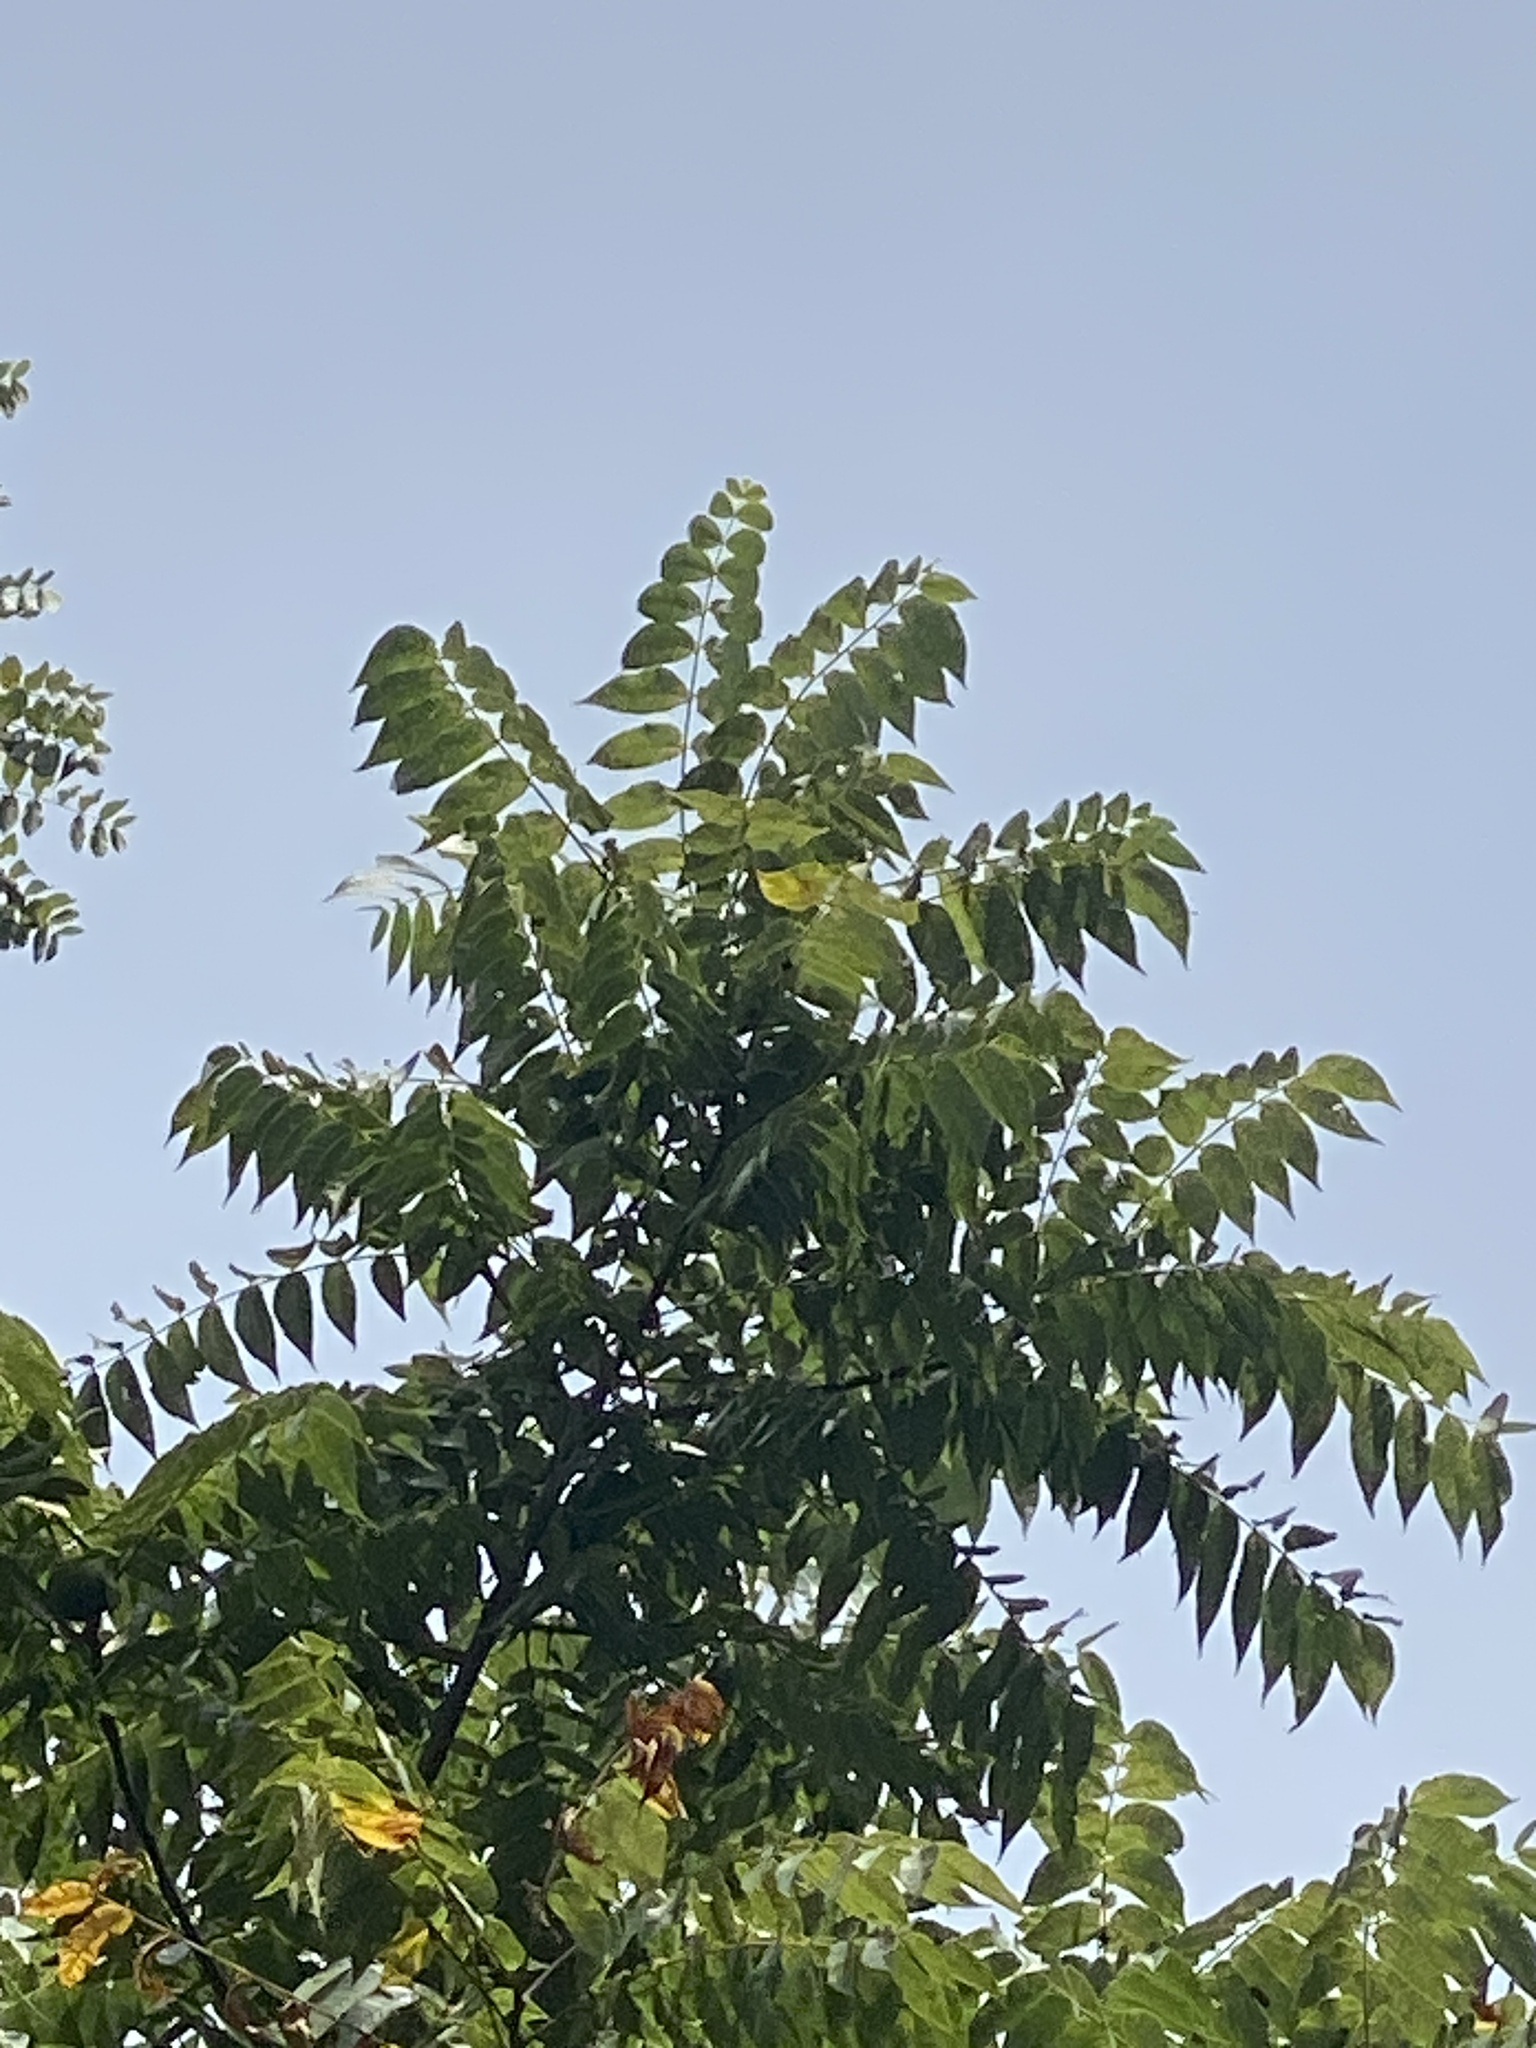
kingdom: Plantae
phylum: Tracheophyta
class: Magnoliopsida
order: Fagales
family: Juglandaceae
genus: Juglans
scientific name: Juglans nigra
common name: Black walnut
